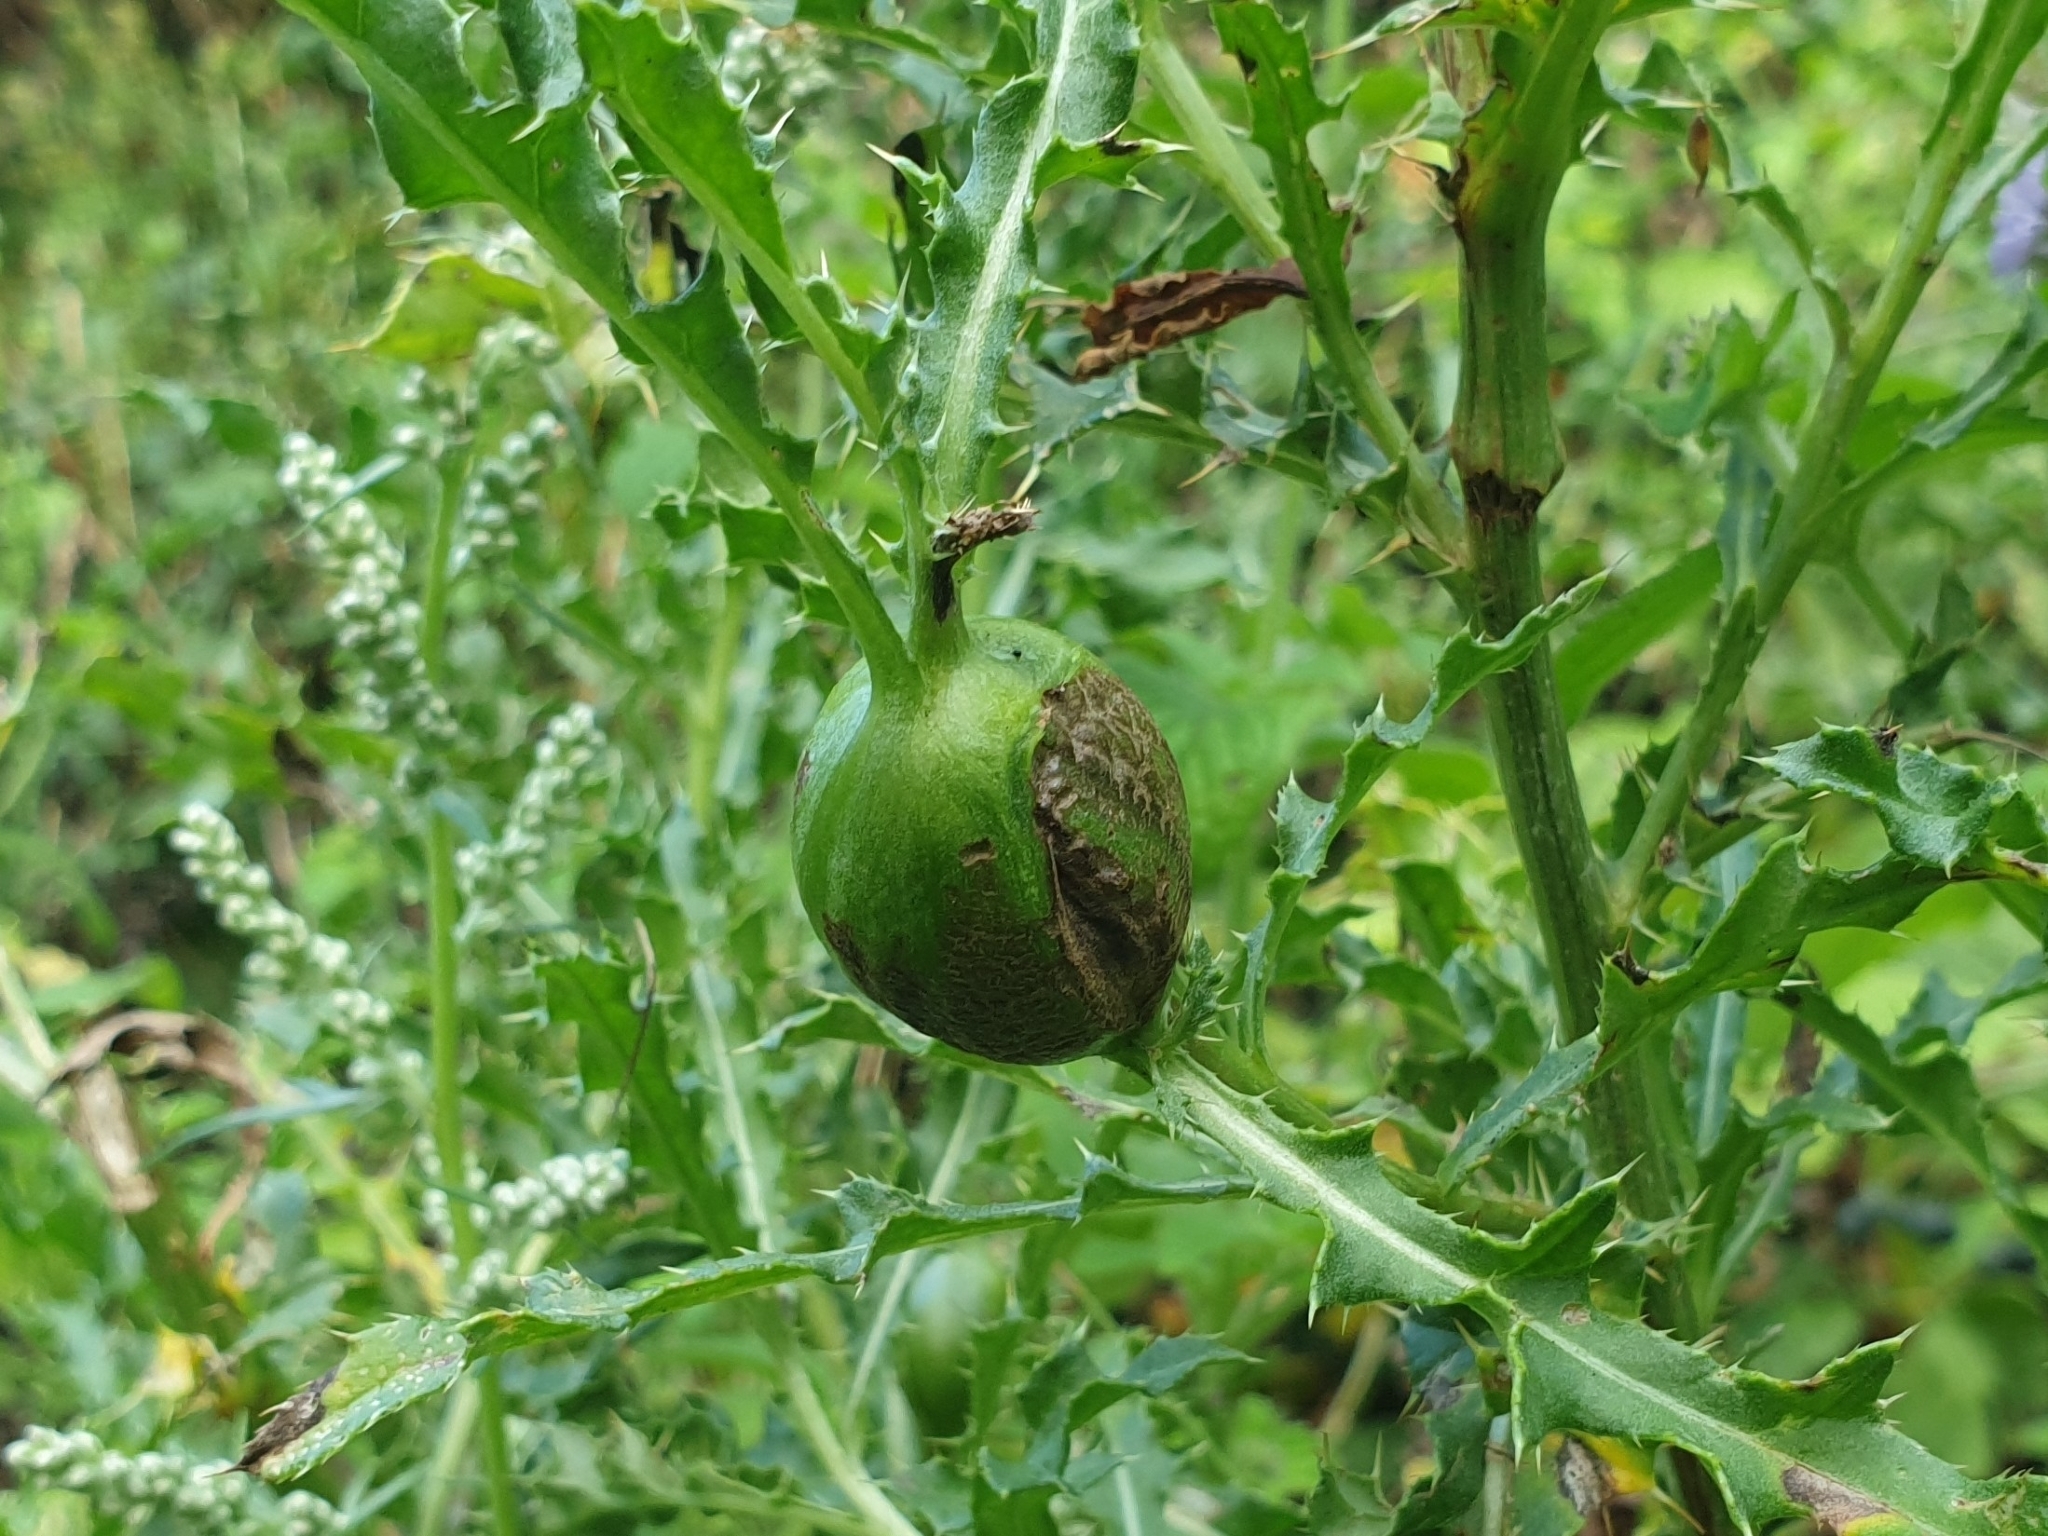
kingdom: Animalia
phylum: Arthropoda
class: Insecta
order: Diptera
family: Tephritidae
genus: Urophora
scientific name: Urophora cardui
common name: Fruit fly
